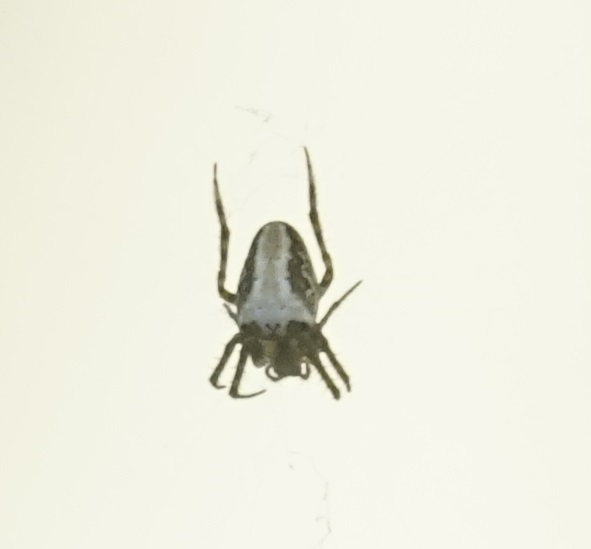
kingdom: Animalia
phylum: Arthropoda
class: Arachnida
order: Araneae
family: Araneidae
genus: Plebs
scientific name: Plebs eburnus
